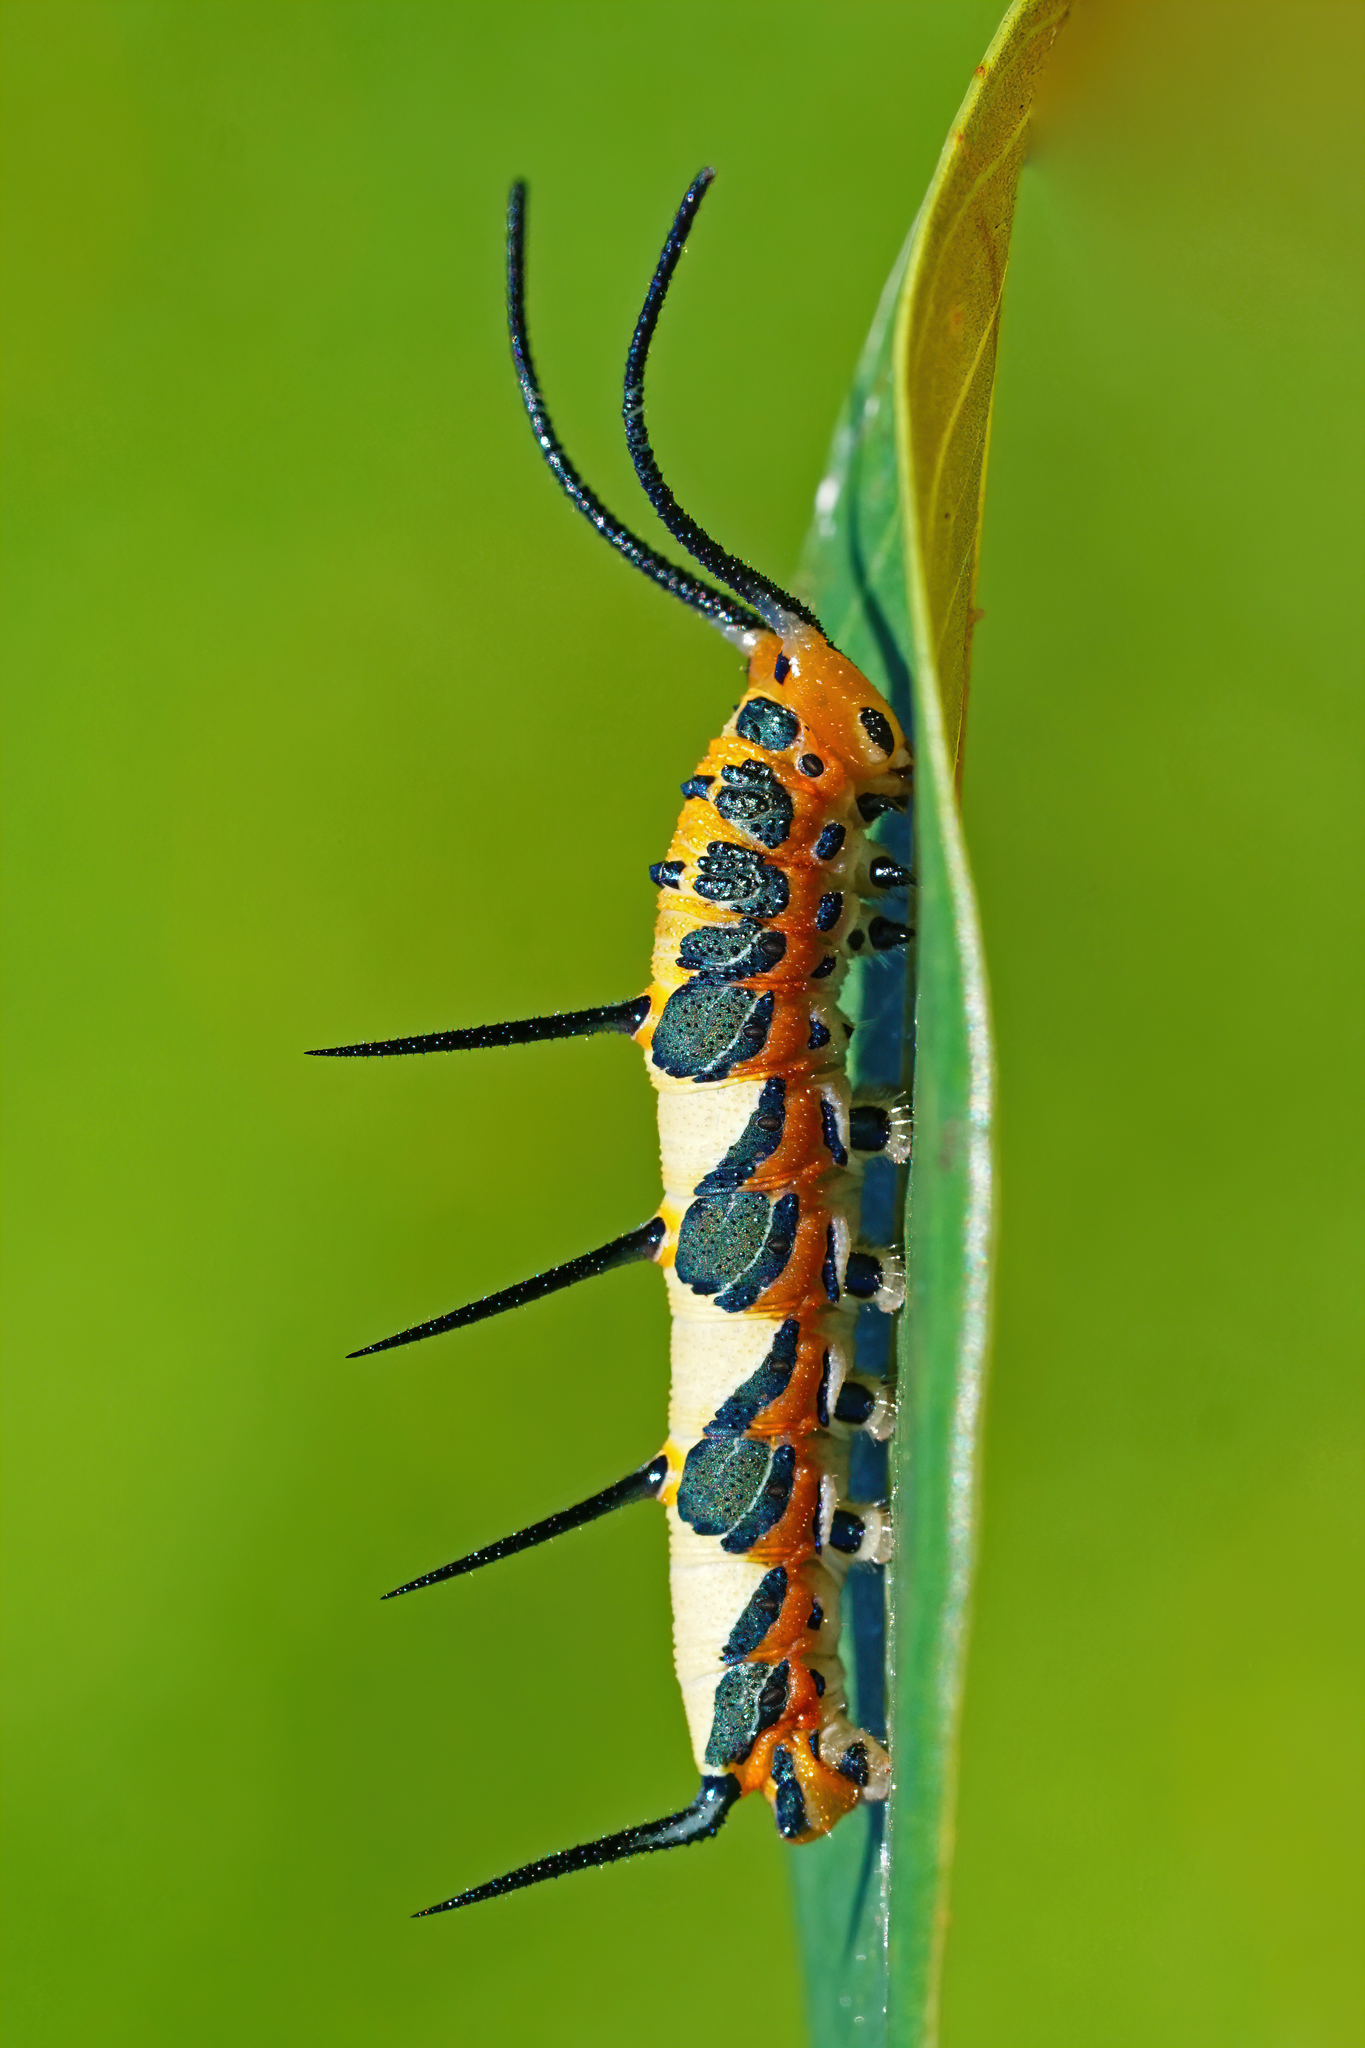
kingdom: Animalia
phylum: Arthropoda
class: Insecta
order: Lepidoptera
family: Nymphalidae
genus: Marpesia
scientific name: Marpesia petreus
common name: Red dagger wing
